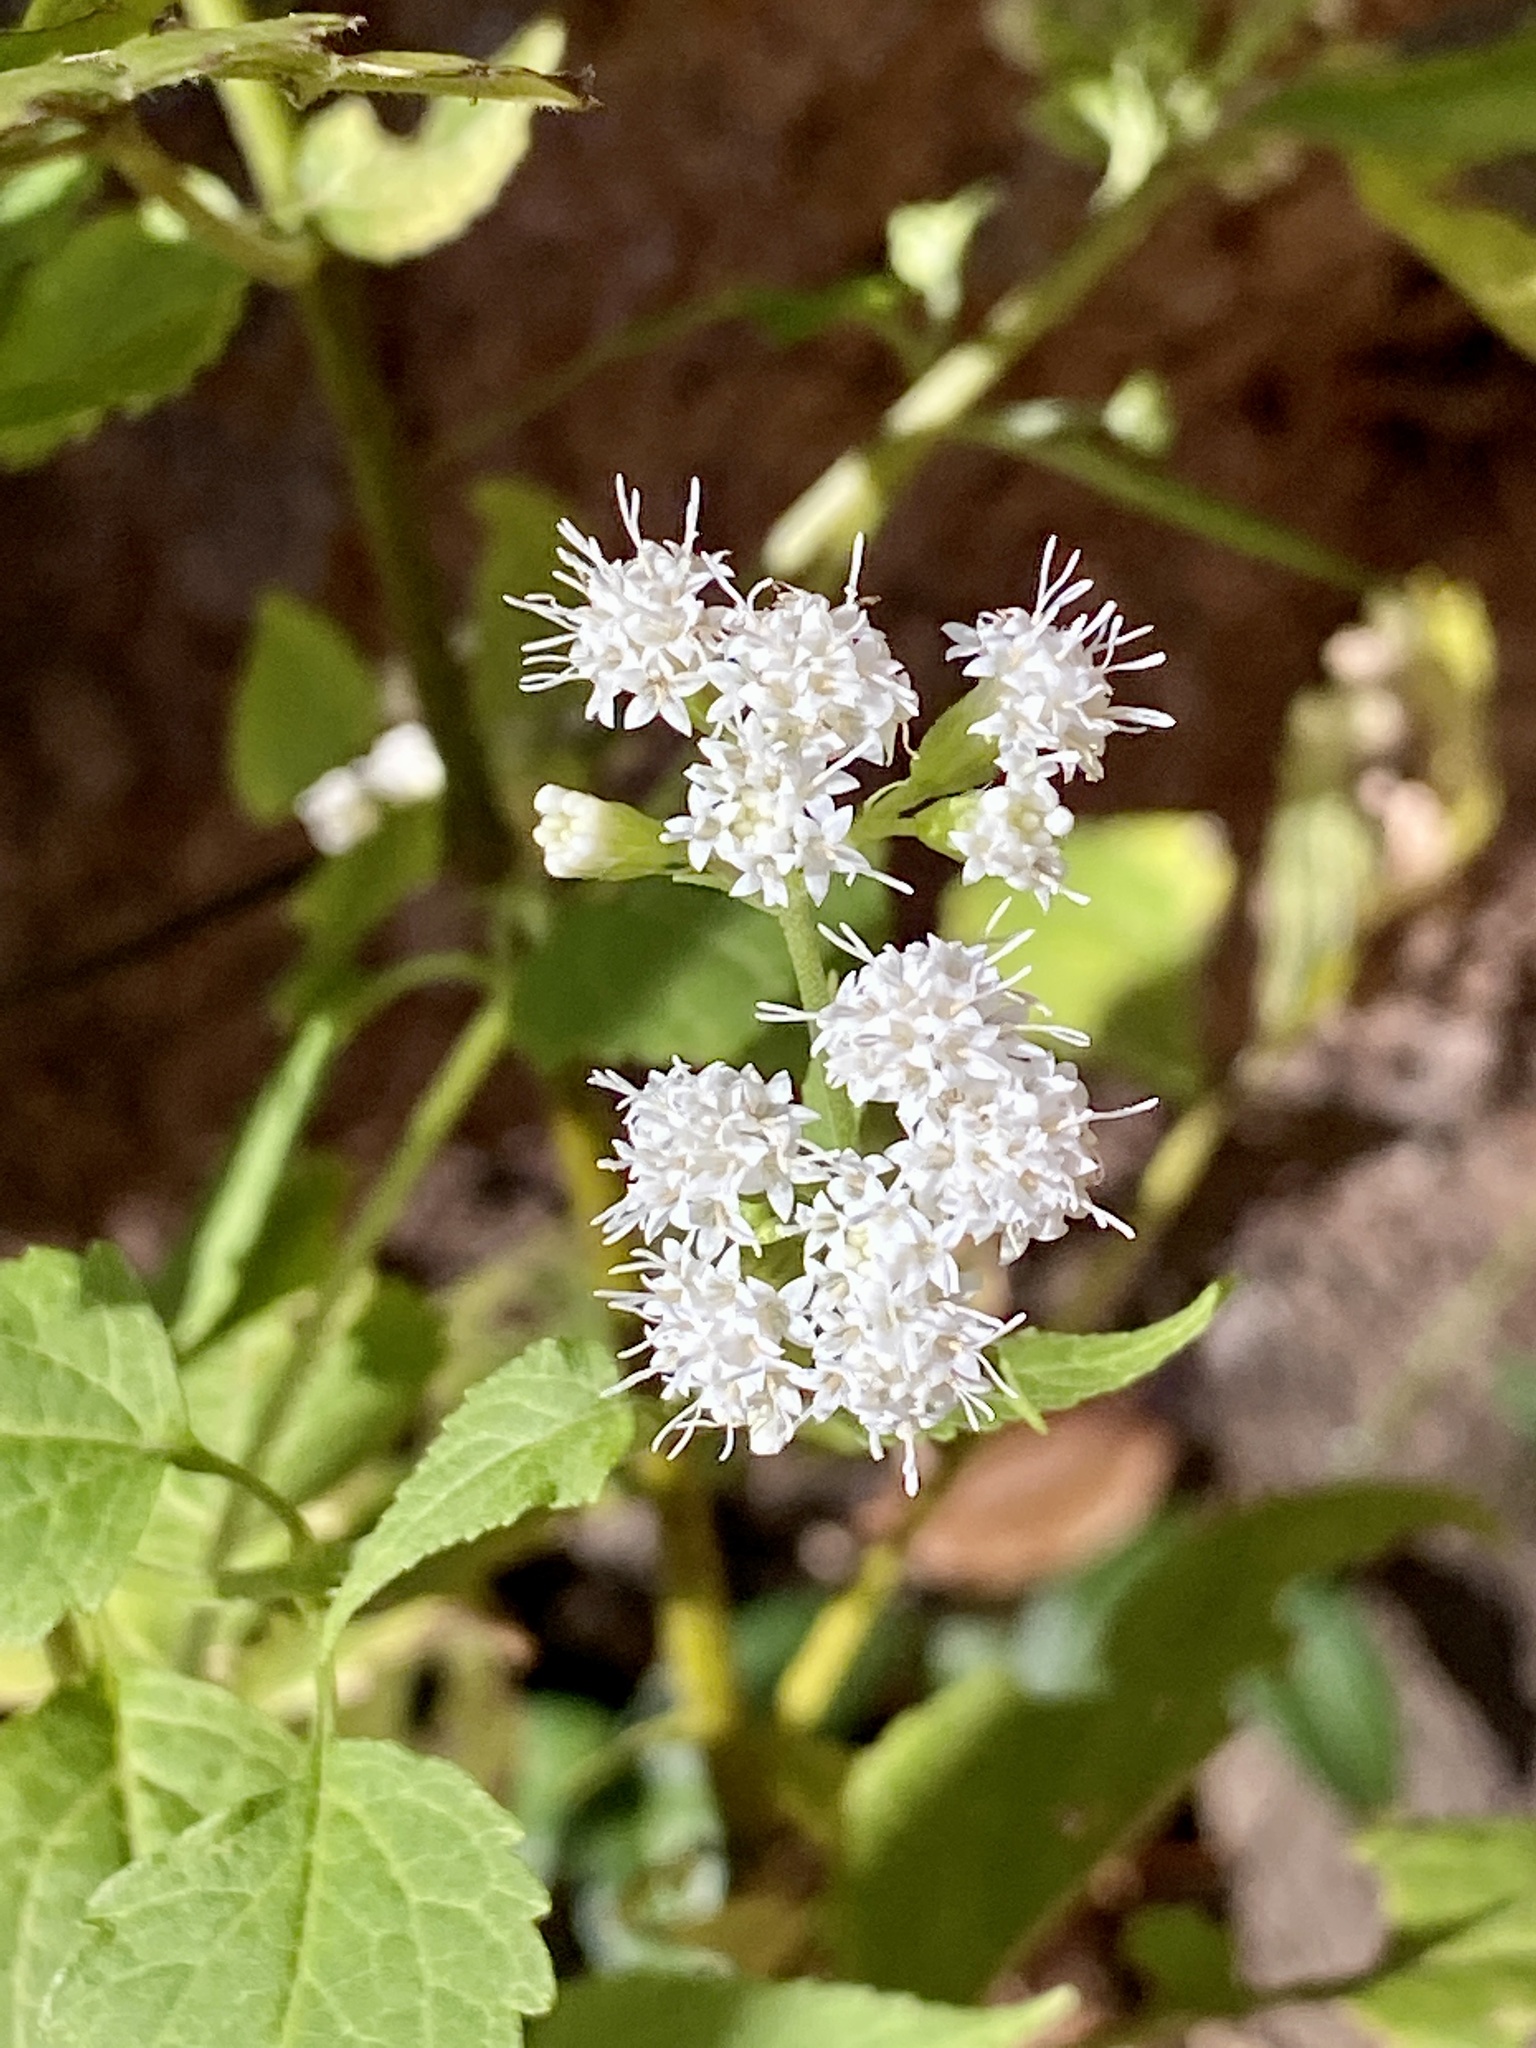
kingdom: Plantae
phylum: Tracheophyta
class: Magnoliopsida
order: Asterales
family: Asteraceae
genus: Ageratina
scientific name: Ageratina altissima
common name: White snakeroot
